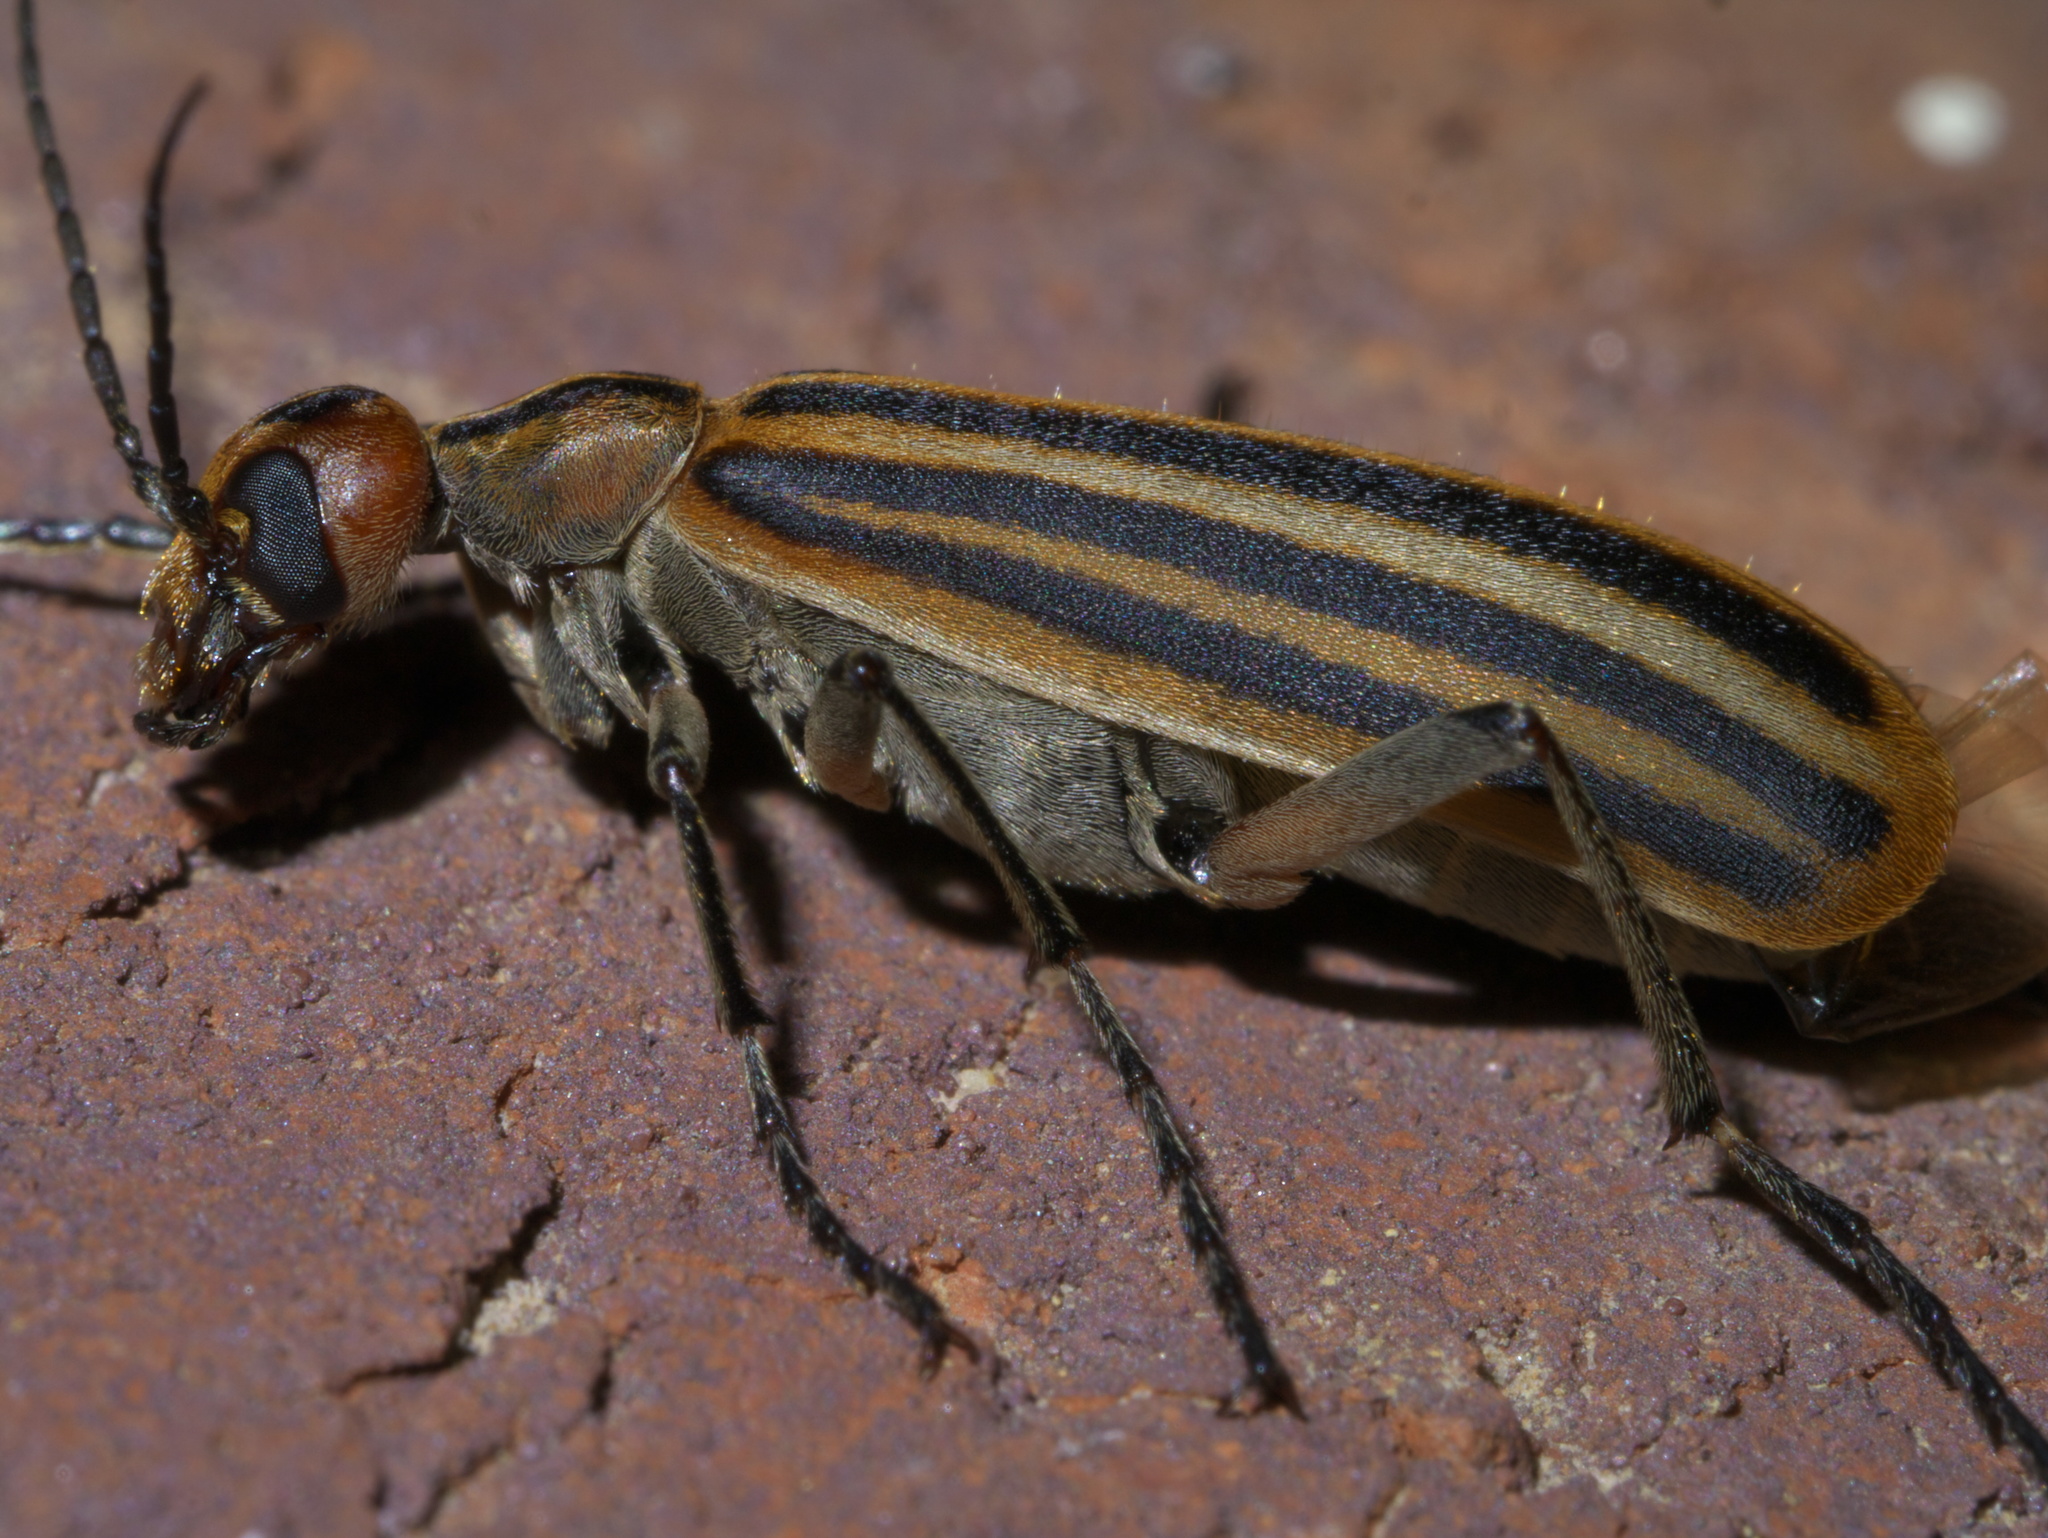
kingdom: Animalia
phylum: Arthropoda
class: Insecta
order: Coleoptera
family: Meloidae
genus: Epicauta
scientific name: Epicauta vittata
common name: Old-fashioned potato beetle
